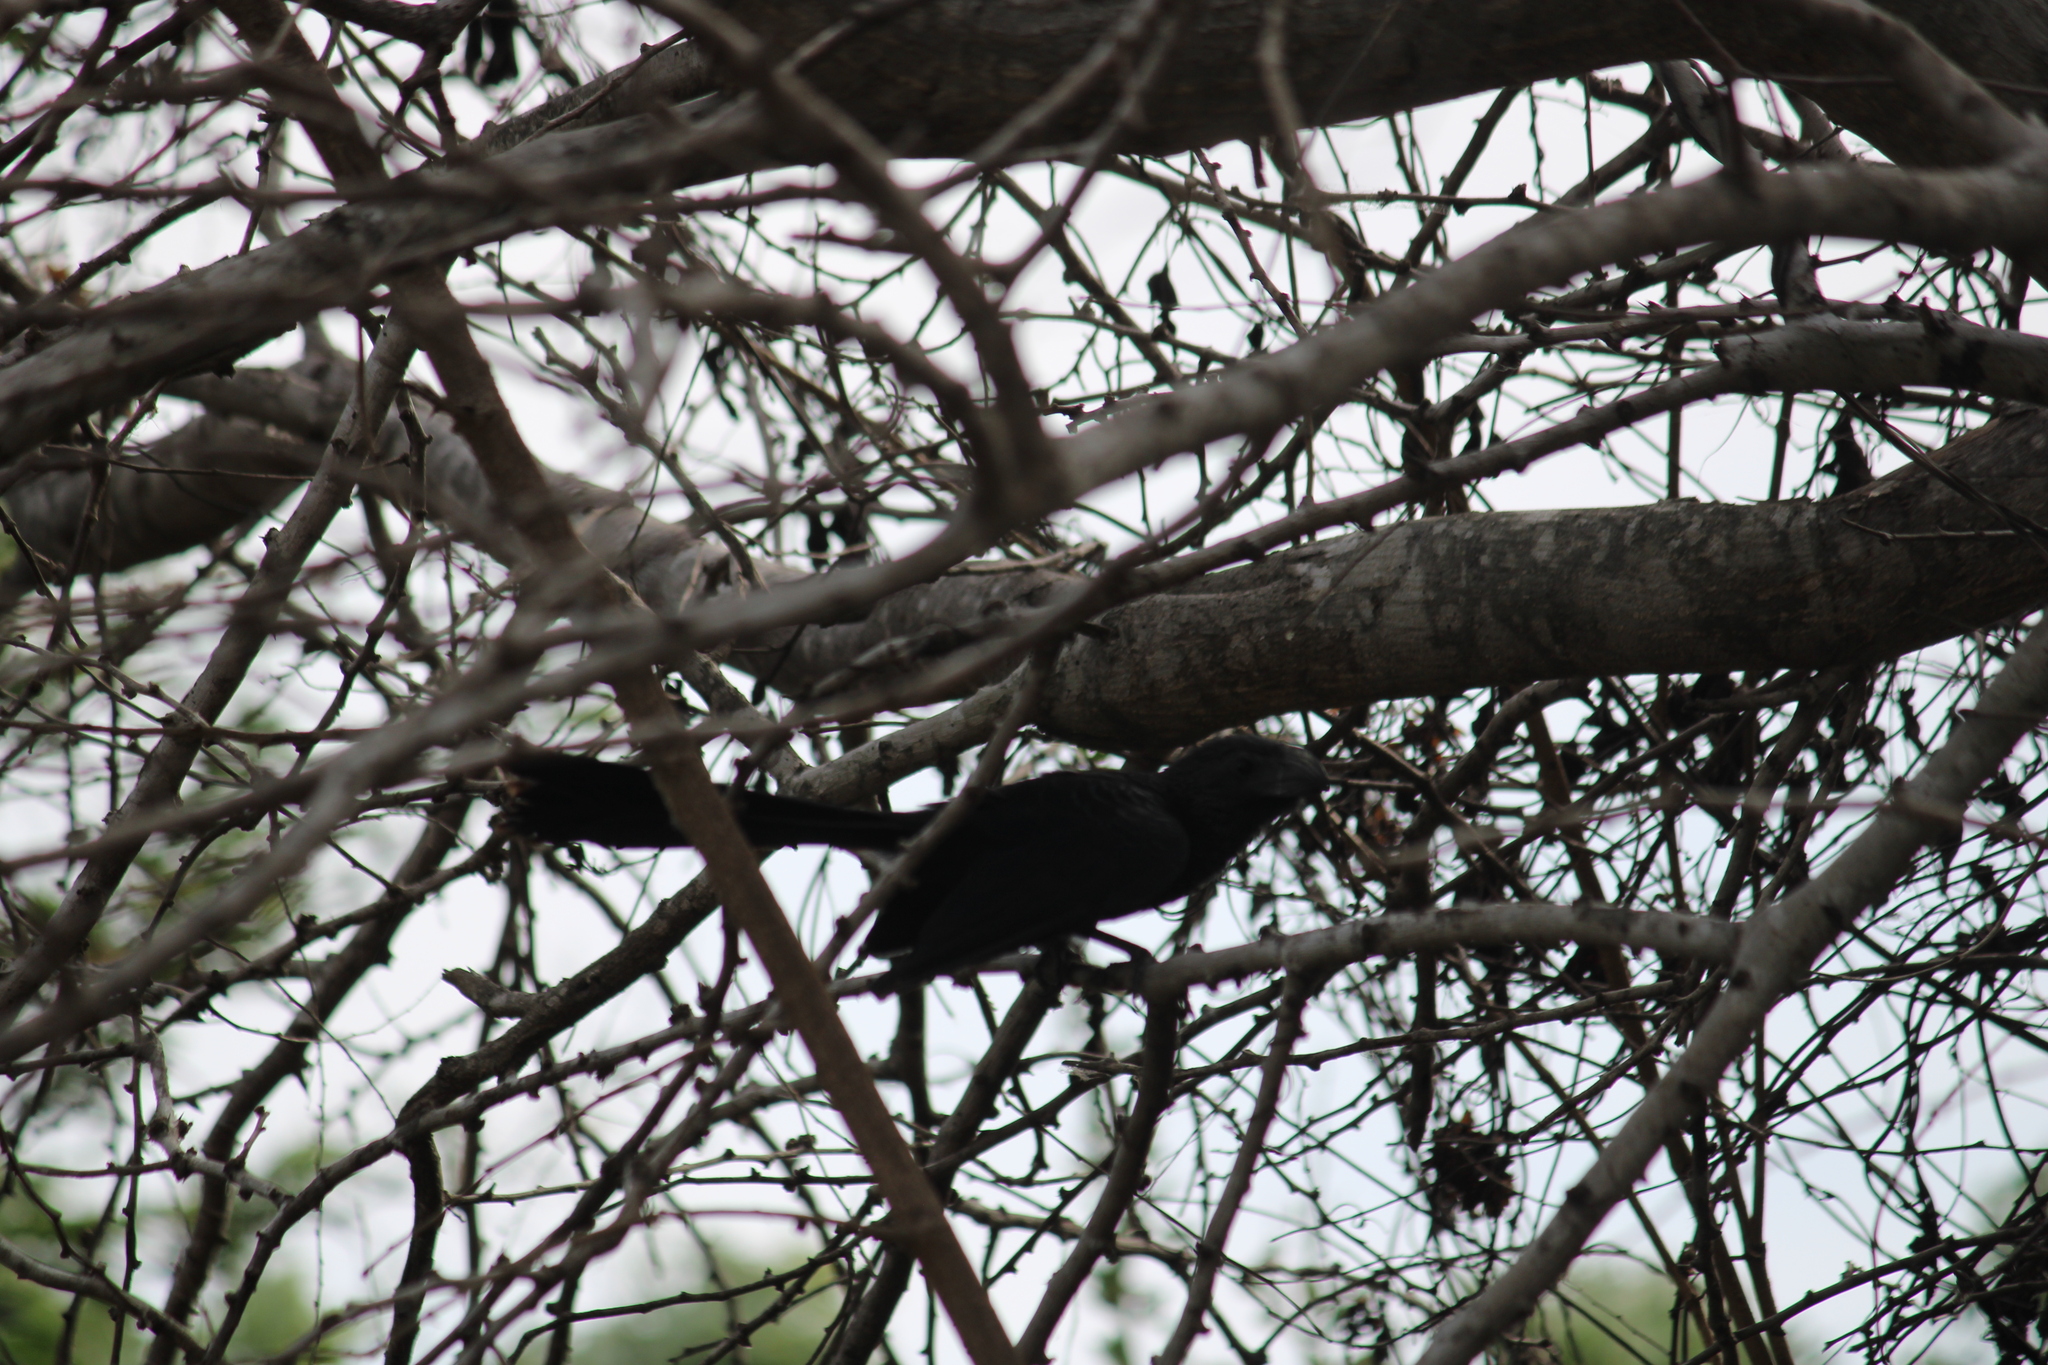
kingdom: Animalia
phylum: Chordata
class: Aves
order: Cuculiformes
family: Cuculidae
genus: Crotophaga
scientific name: Crotophaga sulcirostris
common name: Groove-billed ani
